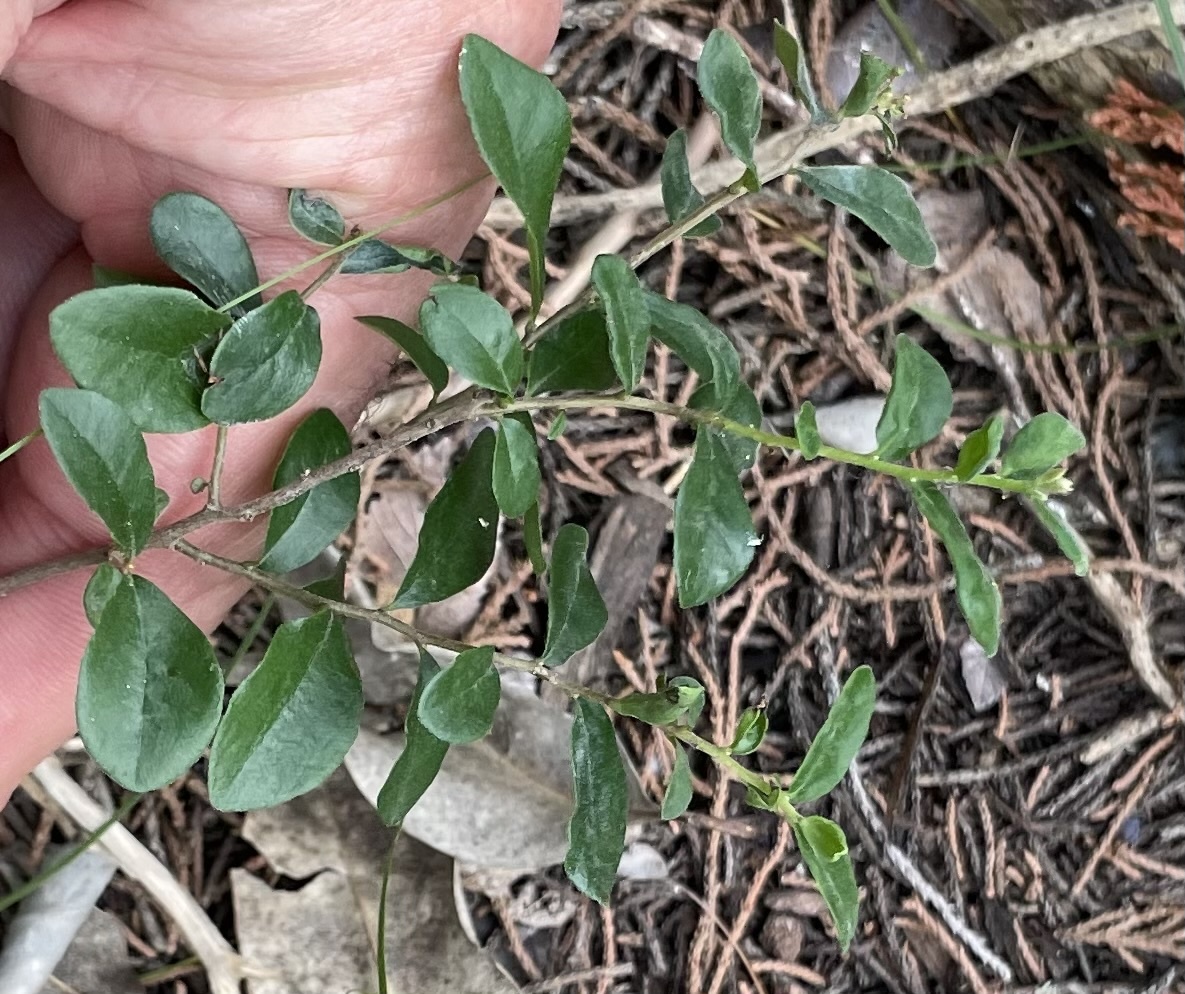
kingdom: Plantae
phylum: Tracheophyta
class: Magnoliopsida
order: Ericales
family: Ebenaceae
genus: Diospyros
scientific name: Diospyros texana
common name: Texas persimmon
